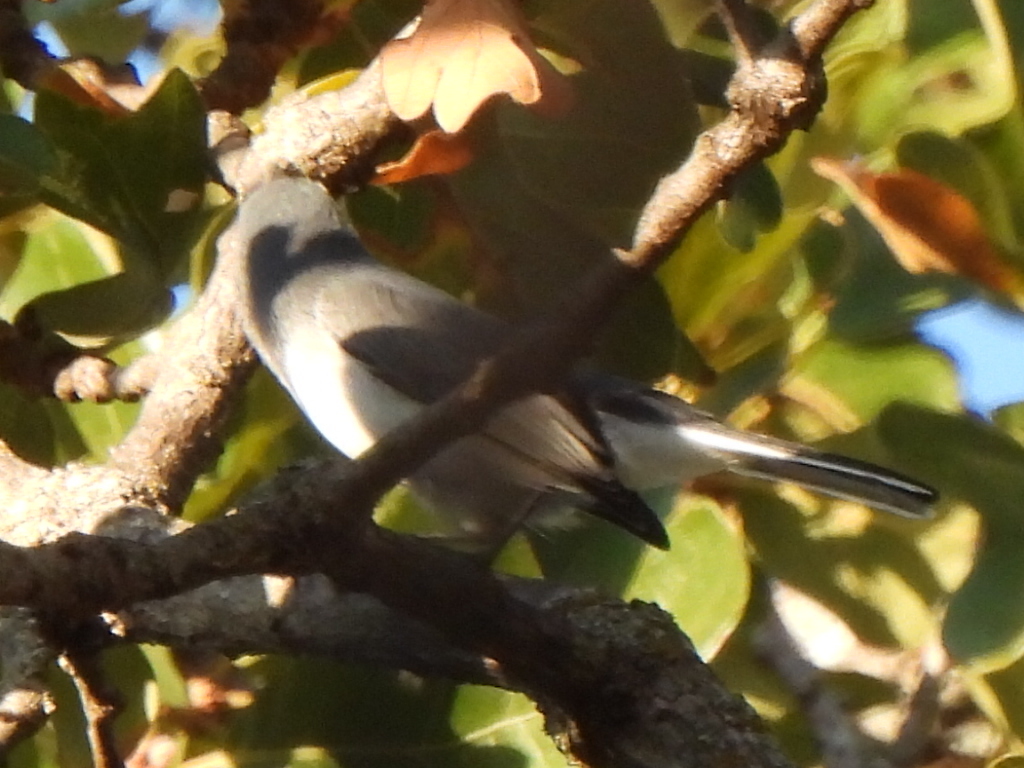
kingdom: Animalia
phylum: Chordata
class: Aves
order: Passeriformes
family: Polioptilidae
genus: Polioptila
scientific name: Polioptila caerulea
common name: Blue-gray gnatcatcher
